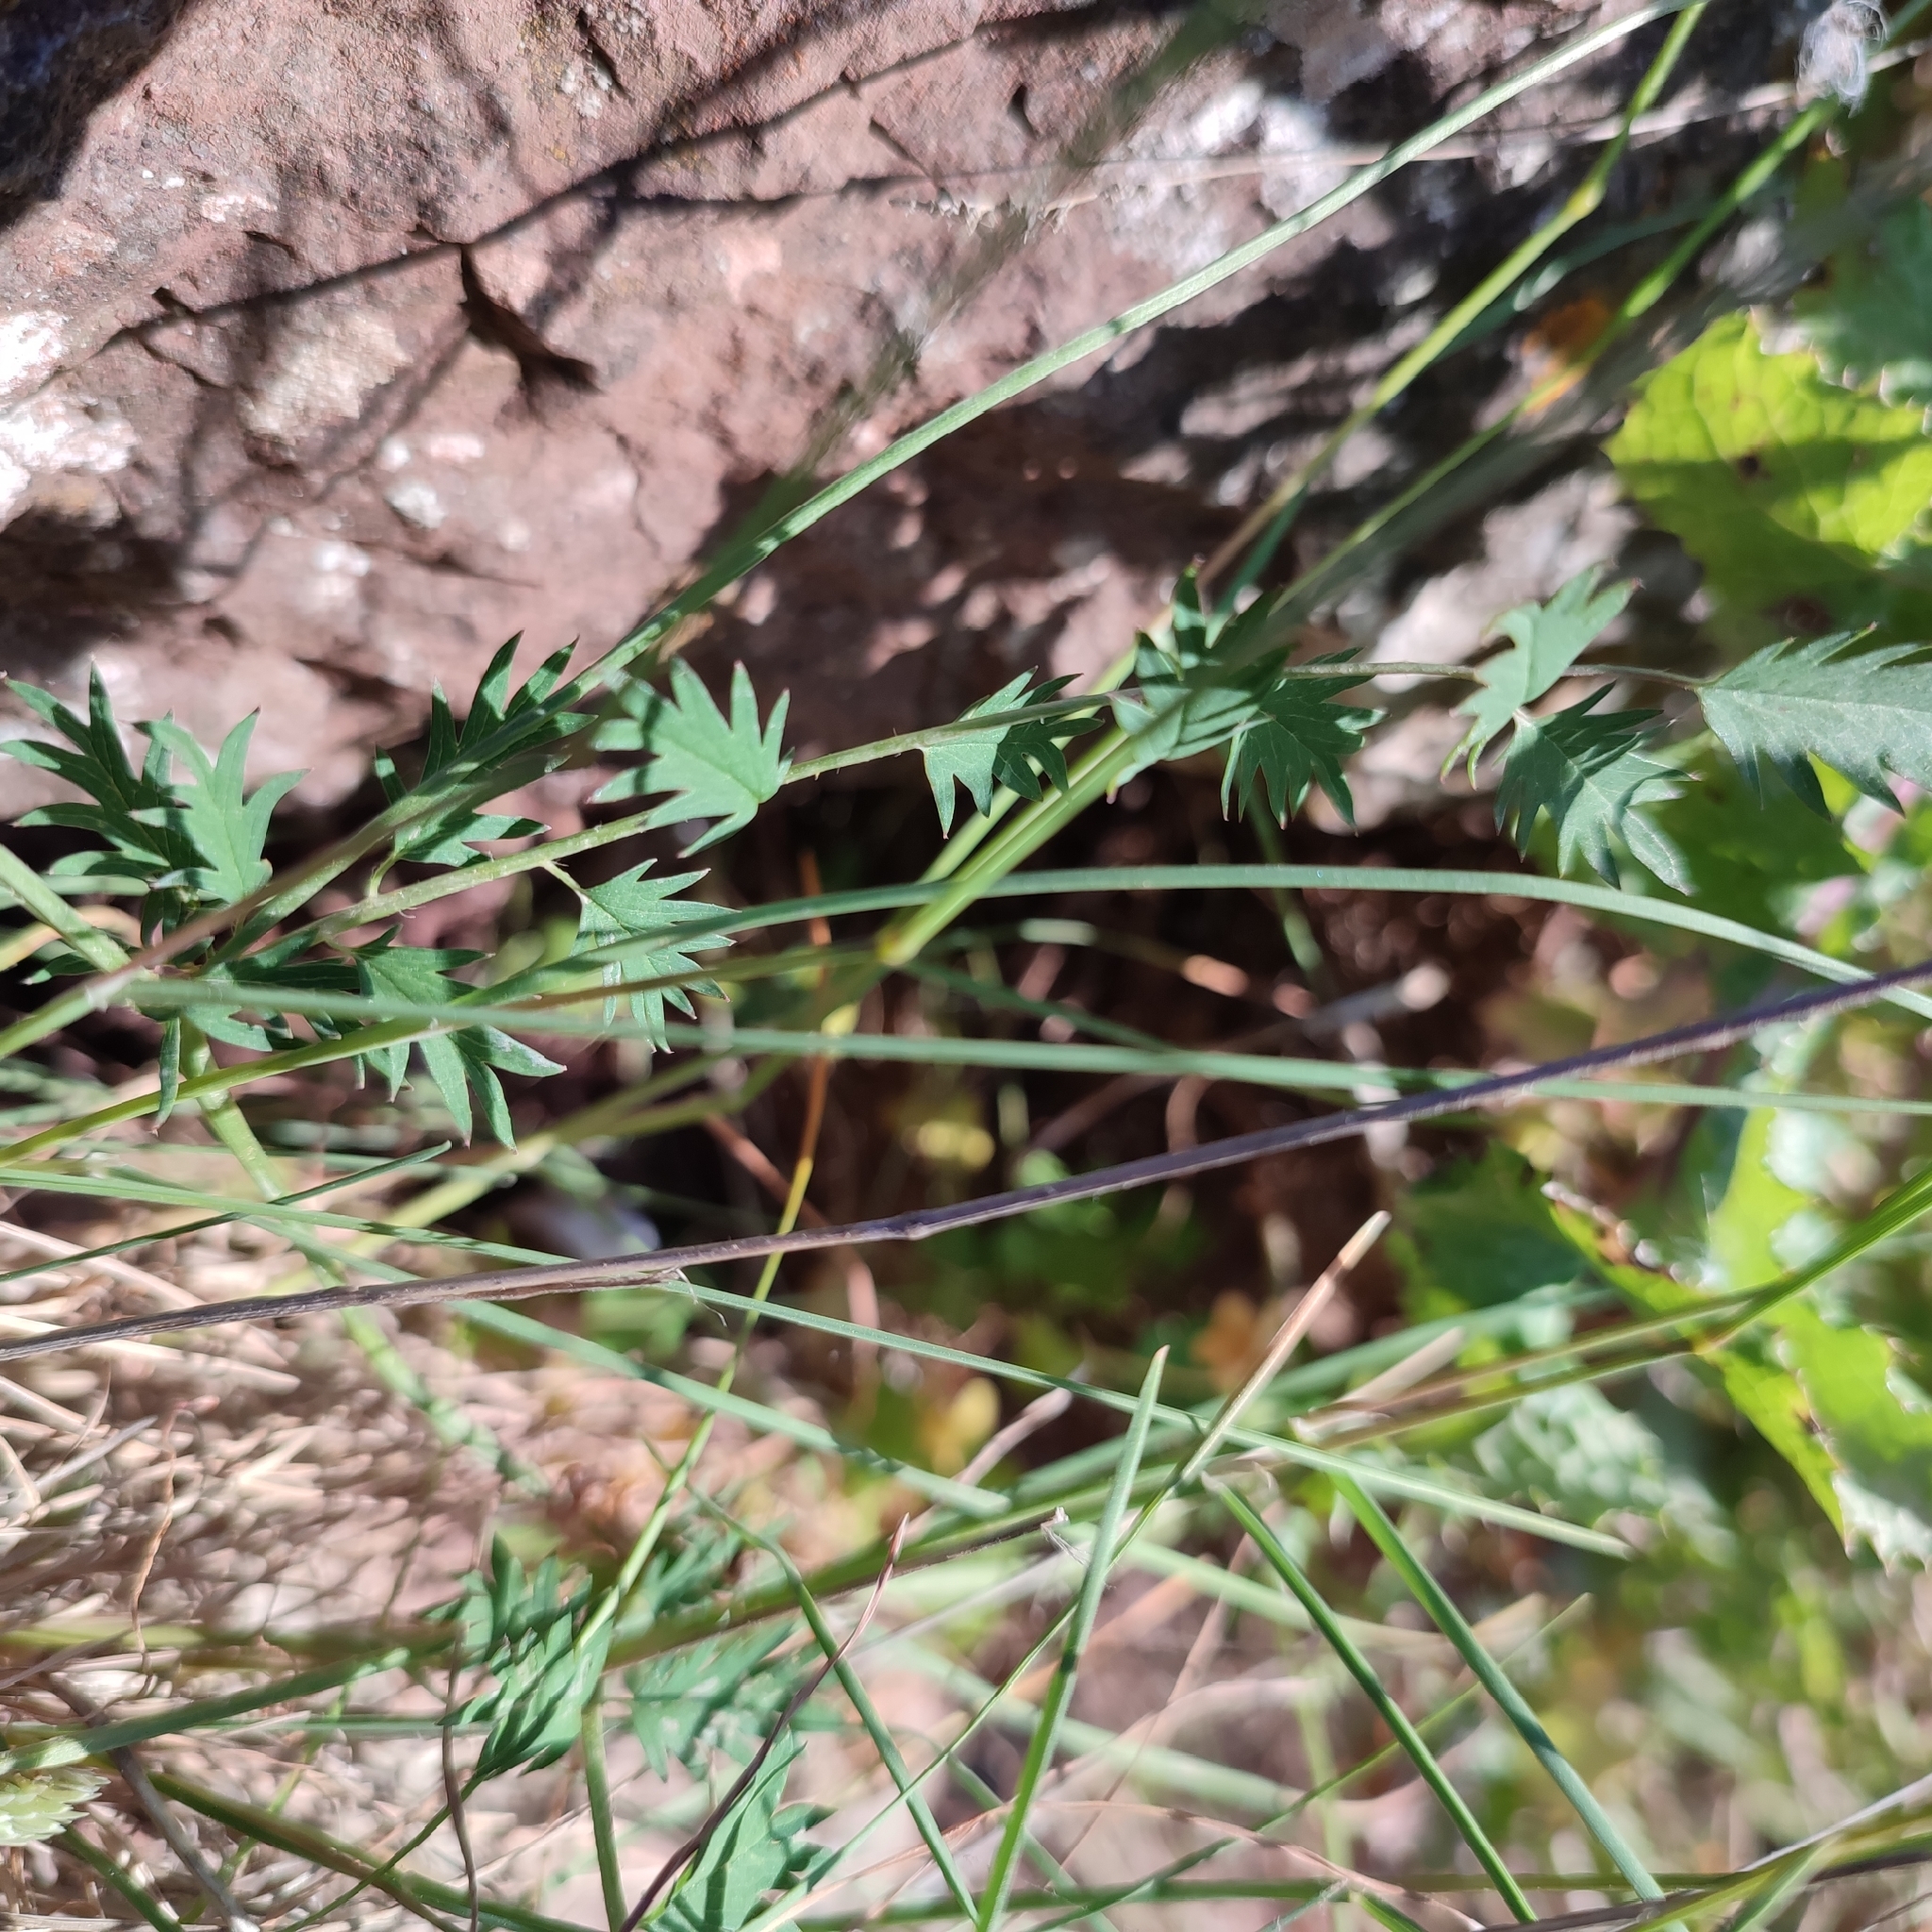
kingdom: Plantae
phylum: Tracheophyta
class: Magnoliopsida
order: Rosales
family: Rosaceae
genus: Poterium
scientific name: Poterium
